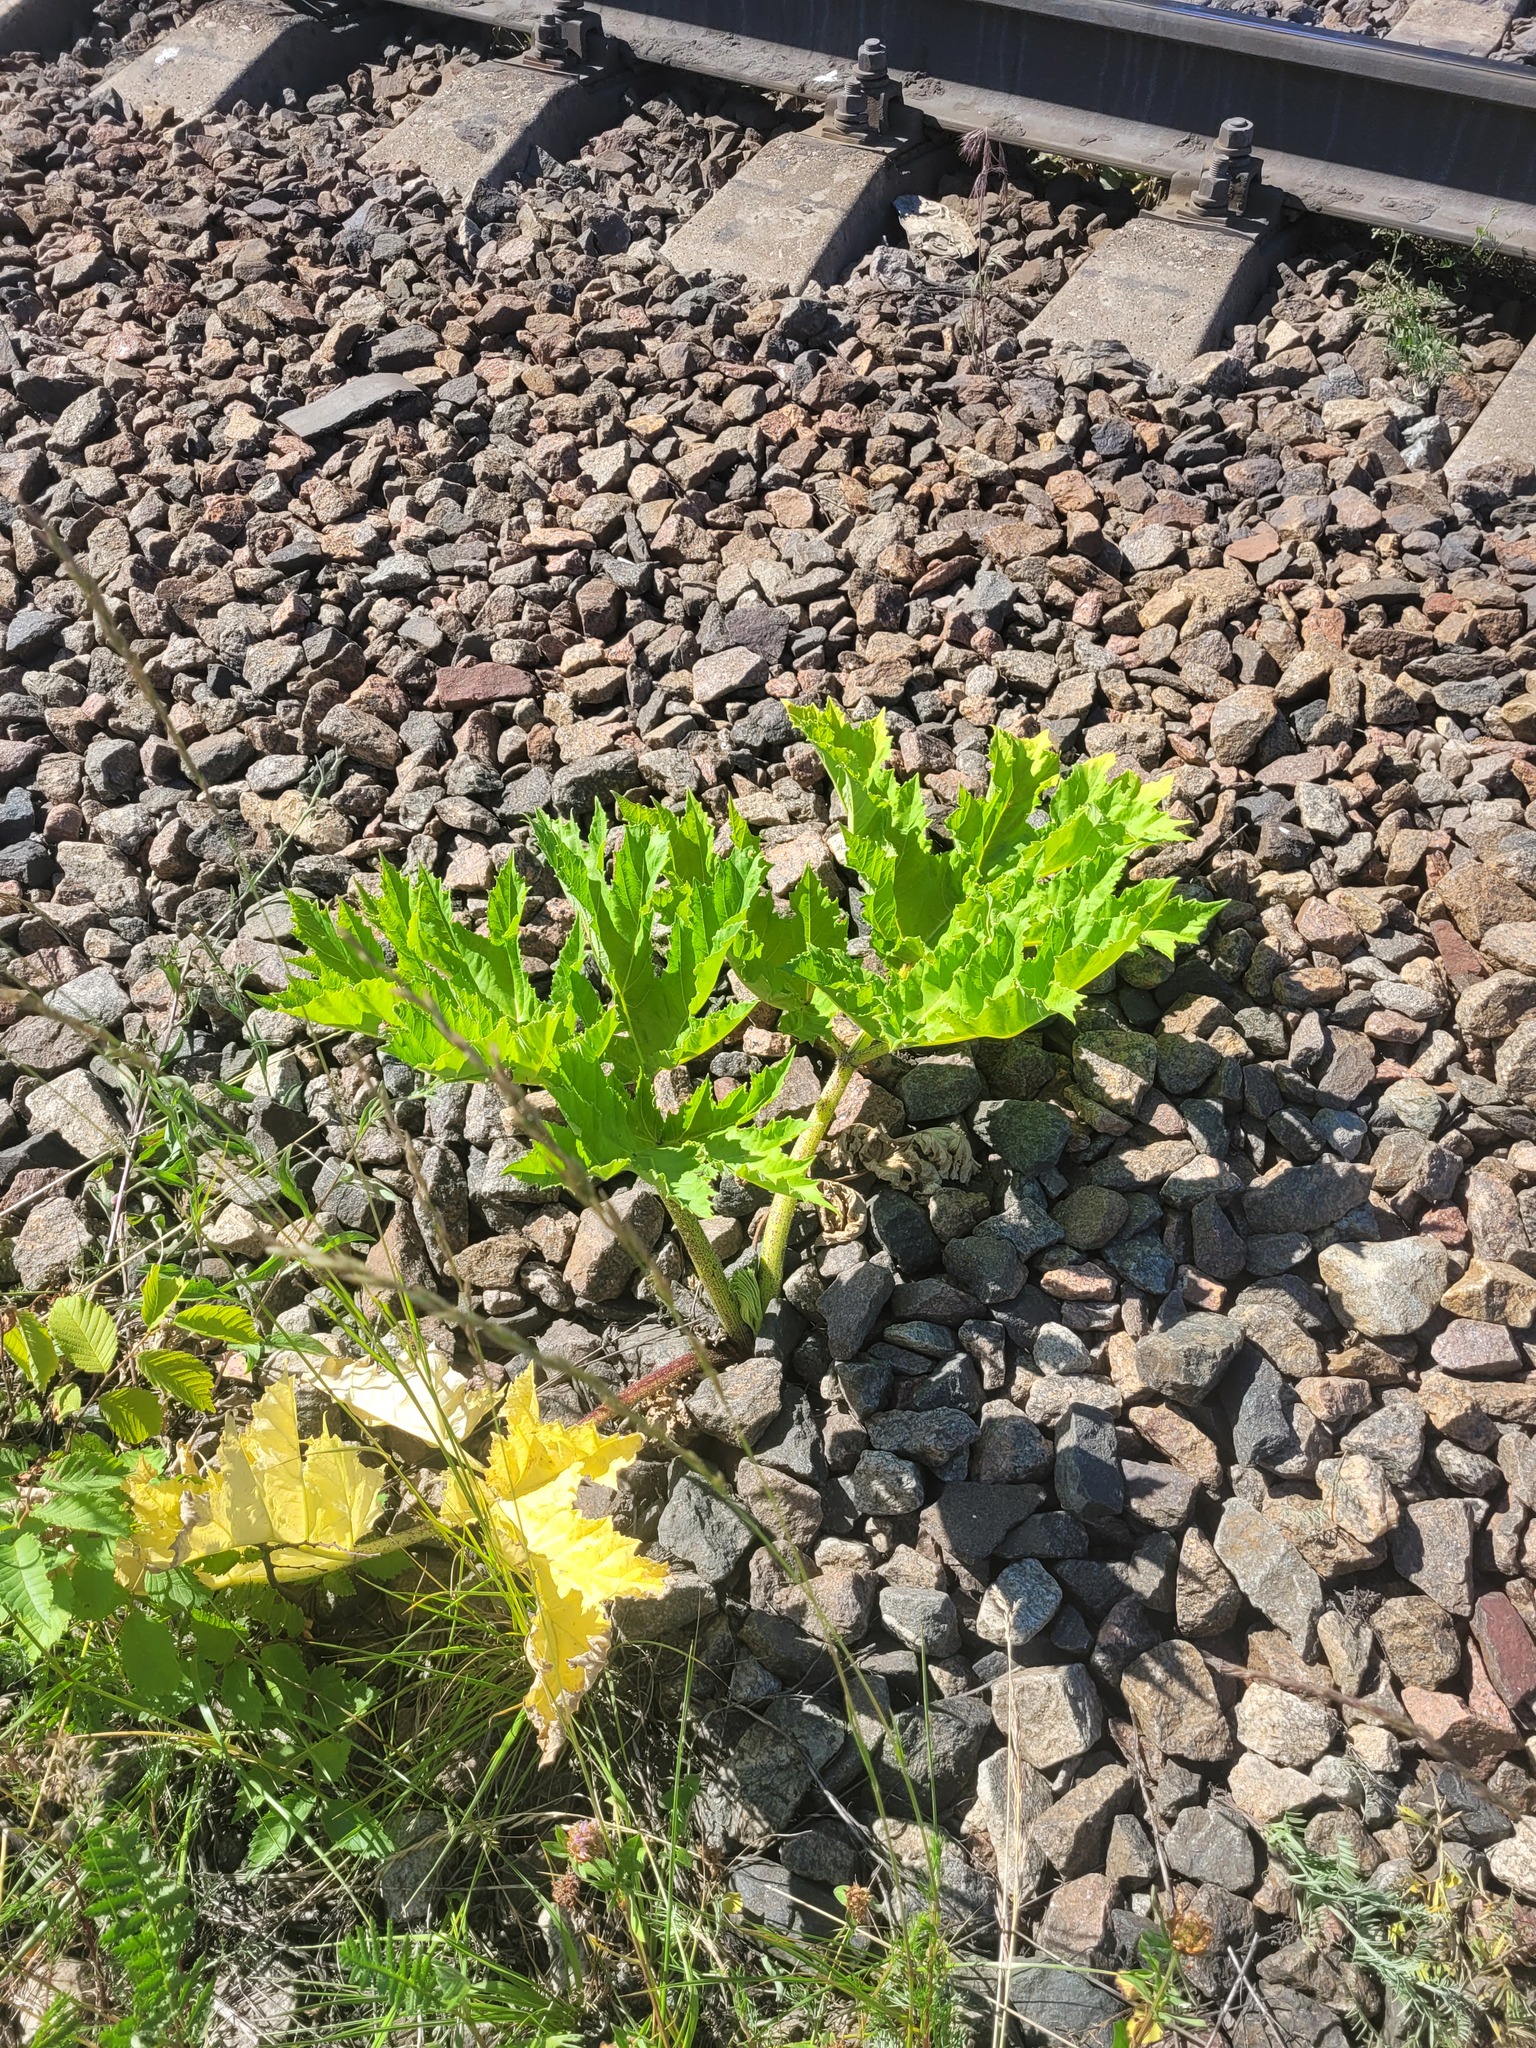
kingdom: Plantae
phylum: Tracheophyta
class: Magnoliopsida
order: Apiales
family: Apiaceae
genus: Heracleum
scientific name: Heracleum sosnowskyi
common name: Sosnowsky's hogweed
